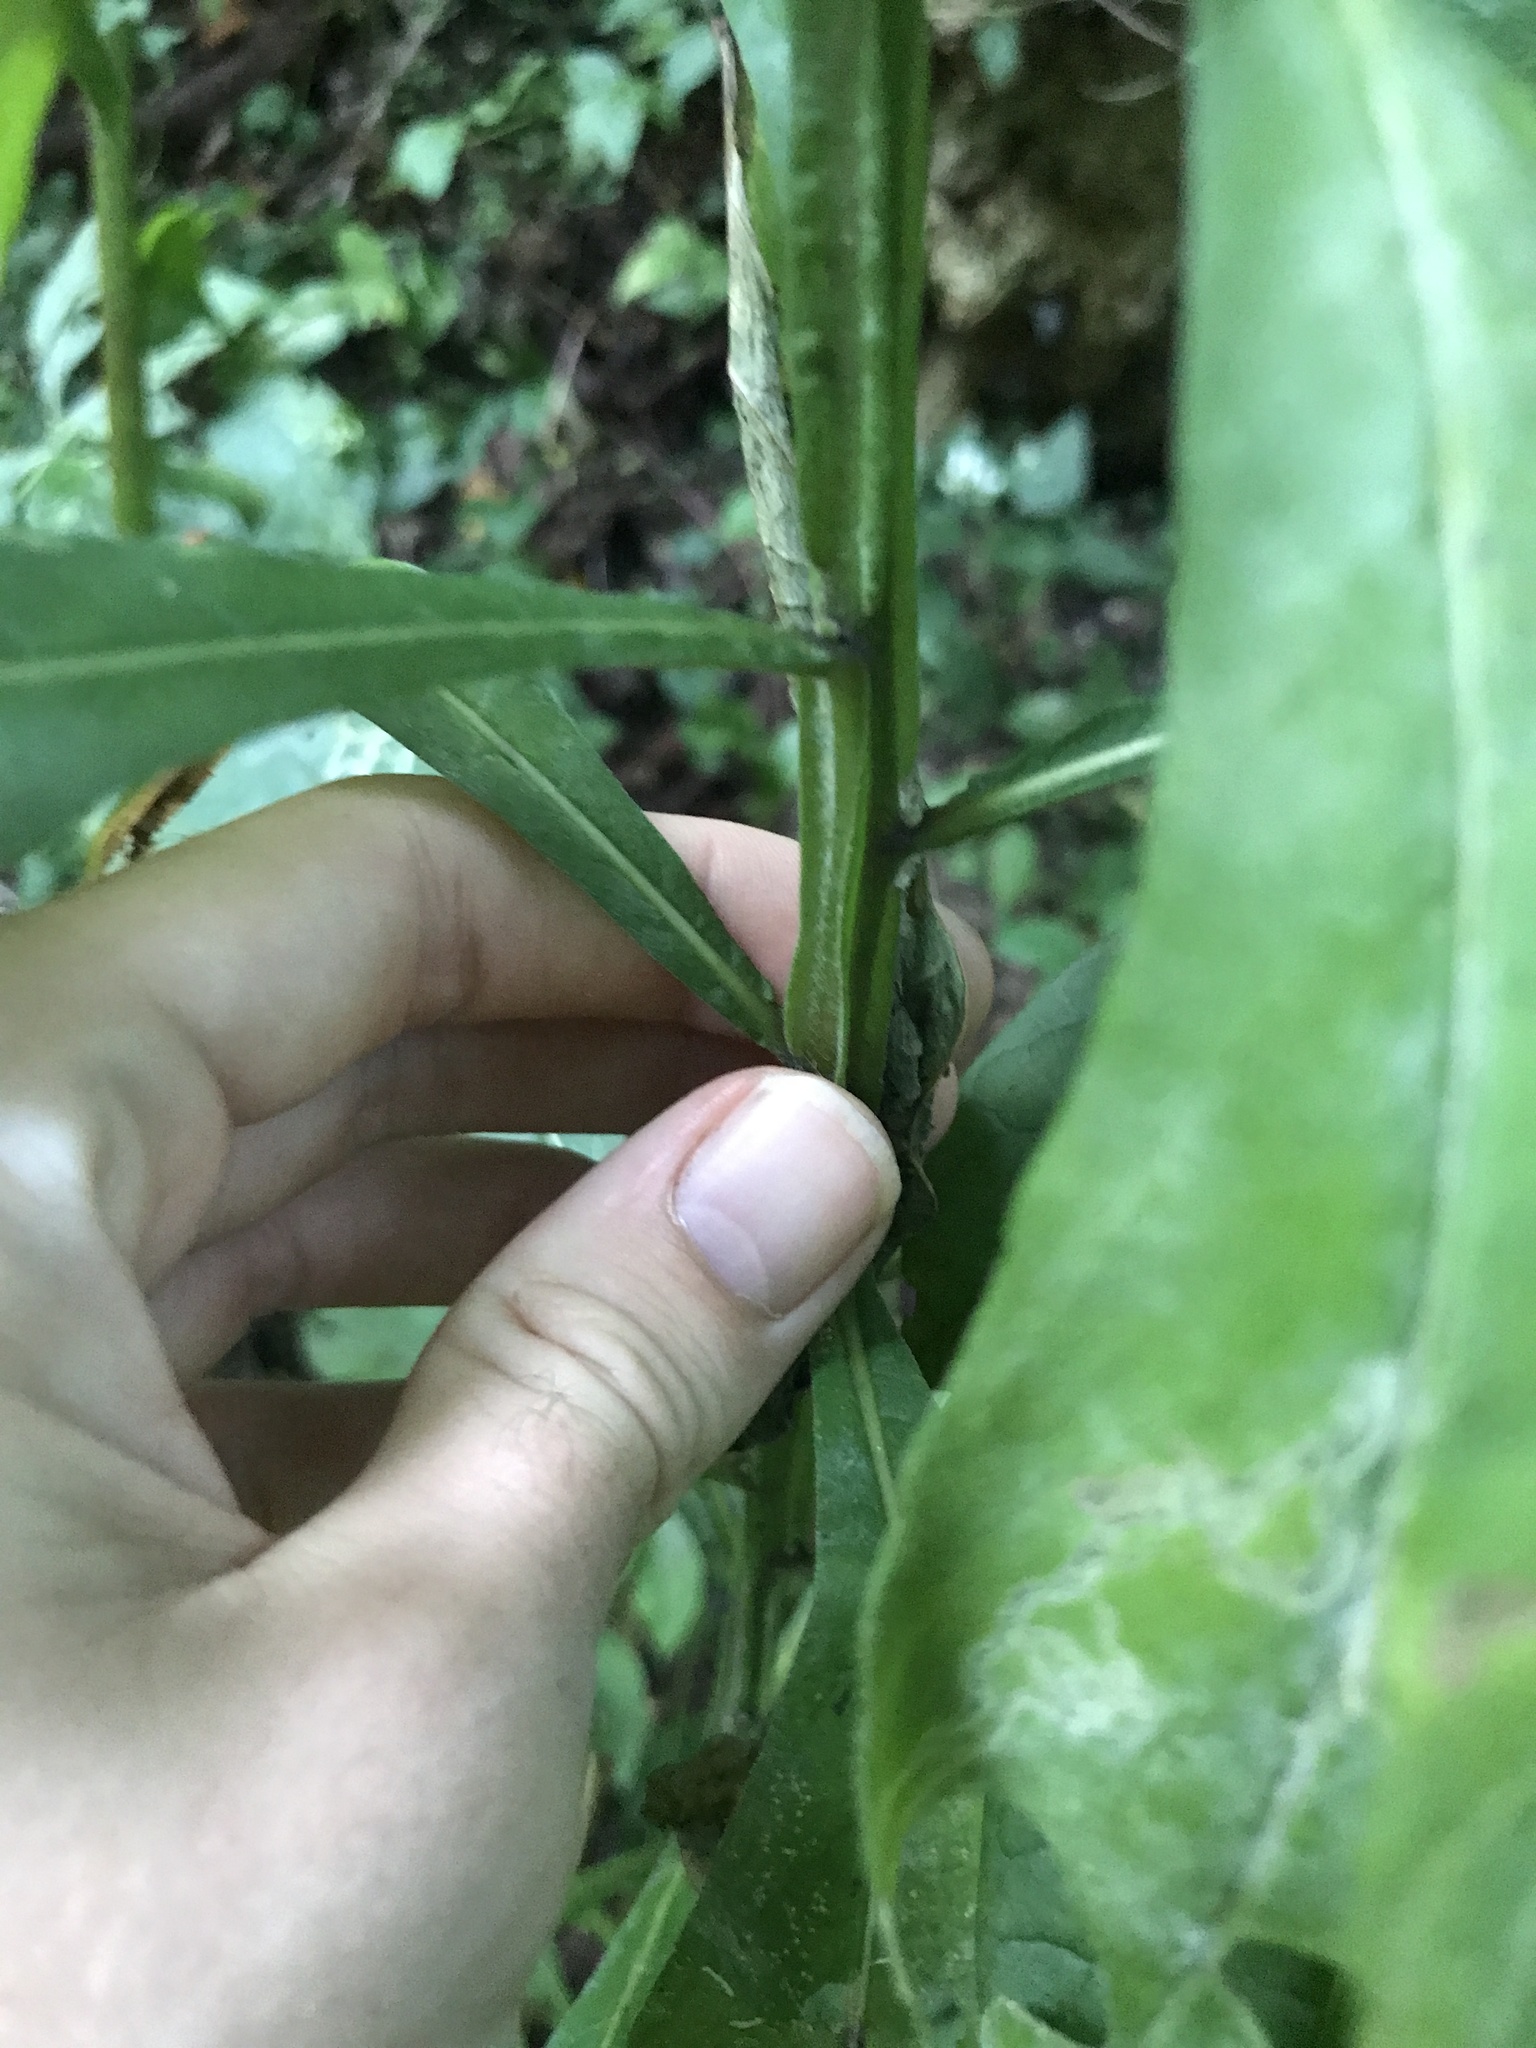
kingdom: Plantae
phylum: Tracheophyta
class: Magnoliopsida
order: Asterales
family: Asteraceae
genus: Verbesina
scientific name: Verbesina alternifolia
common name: Wingstem
